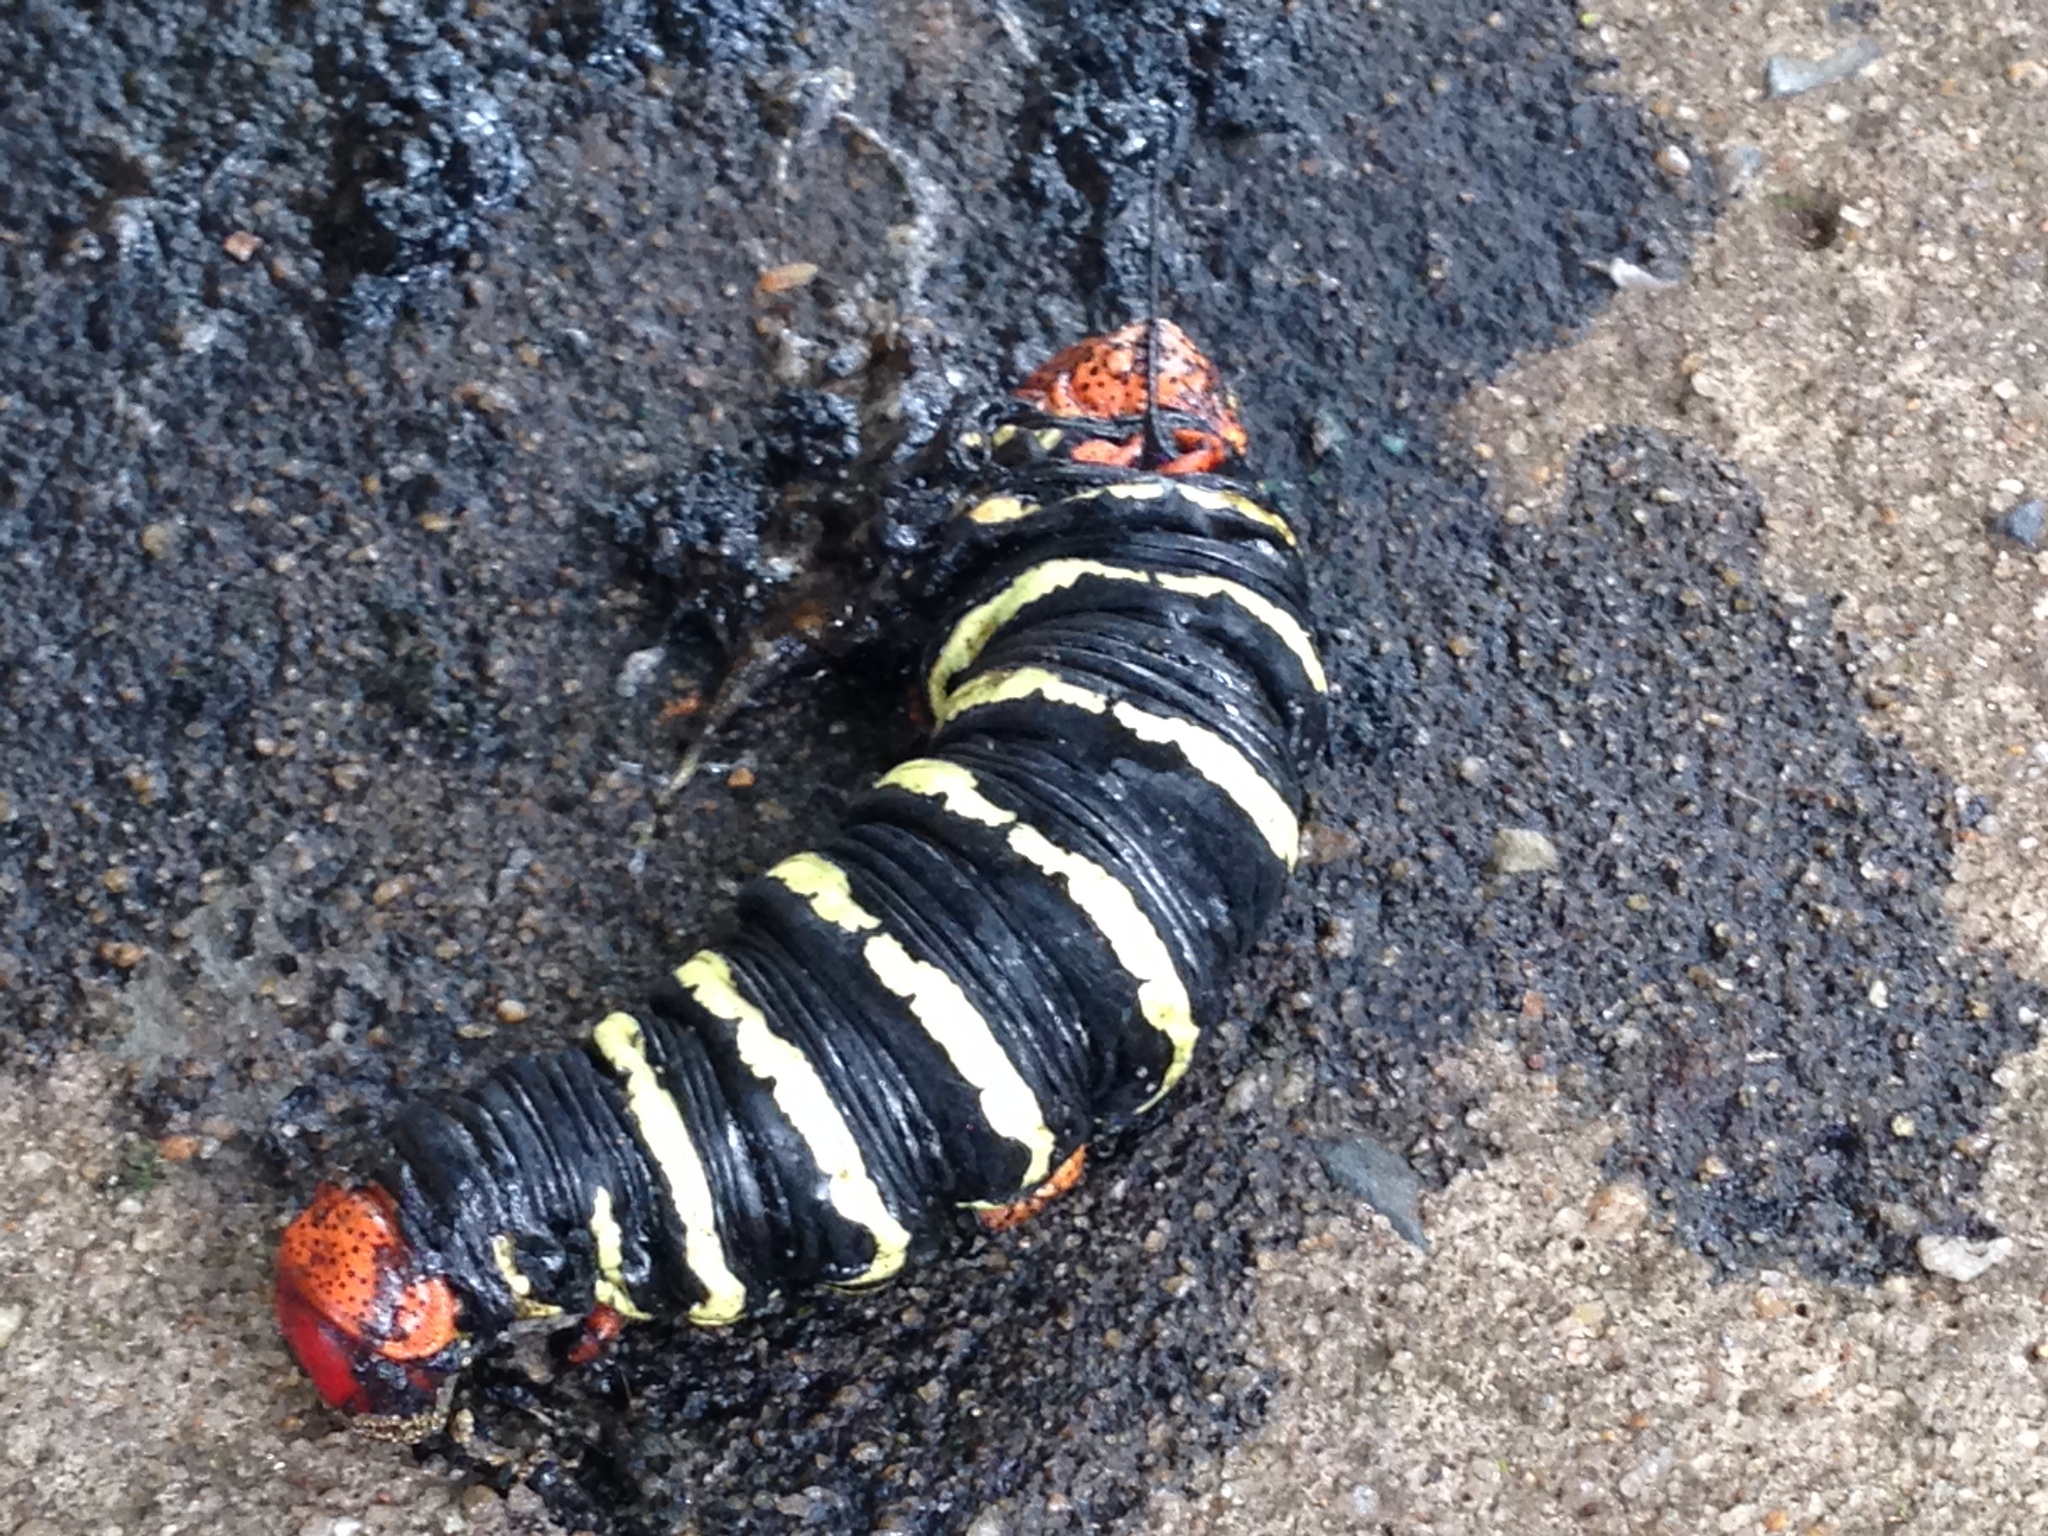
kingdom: Animalia
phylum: Arthropoda
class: Insecta
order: Lepidoptera
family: Sphingidae
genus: Pseudosphinx
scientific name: Pseudosphinx tetrio
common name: Tetrio sphinx
